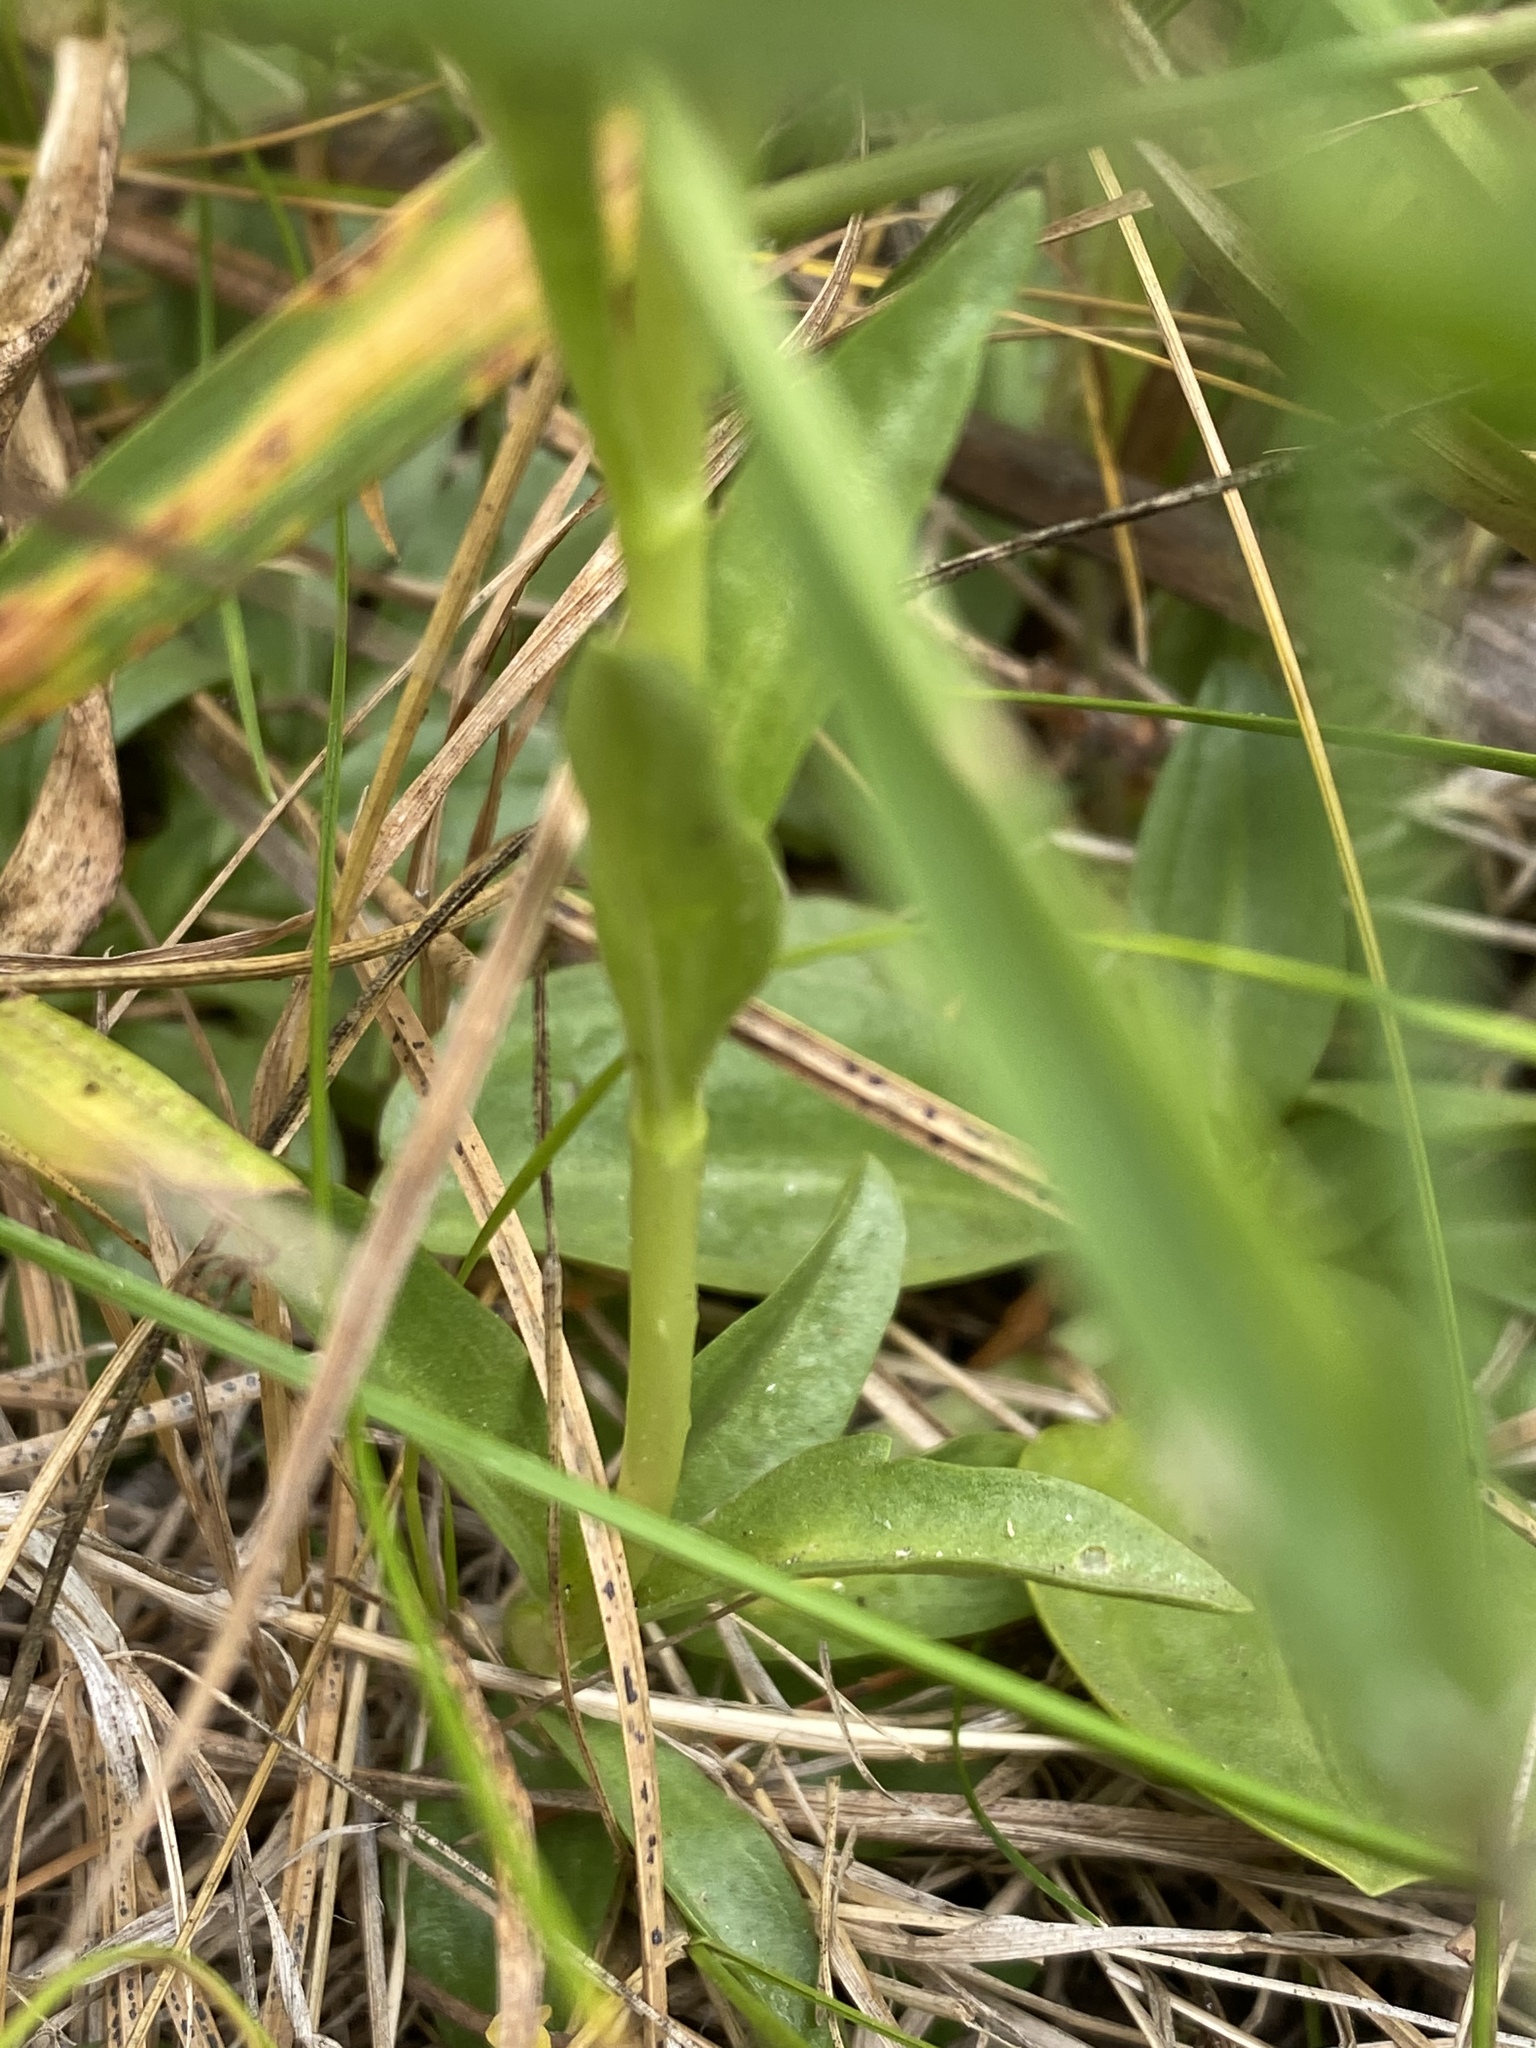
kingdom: Plantae
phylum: Tracheophyta
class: Magnoliopsida
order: Gentianales
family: Gentianaceae
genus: Gentiana
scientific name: Gentiana newberryi
